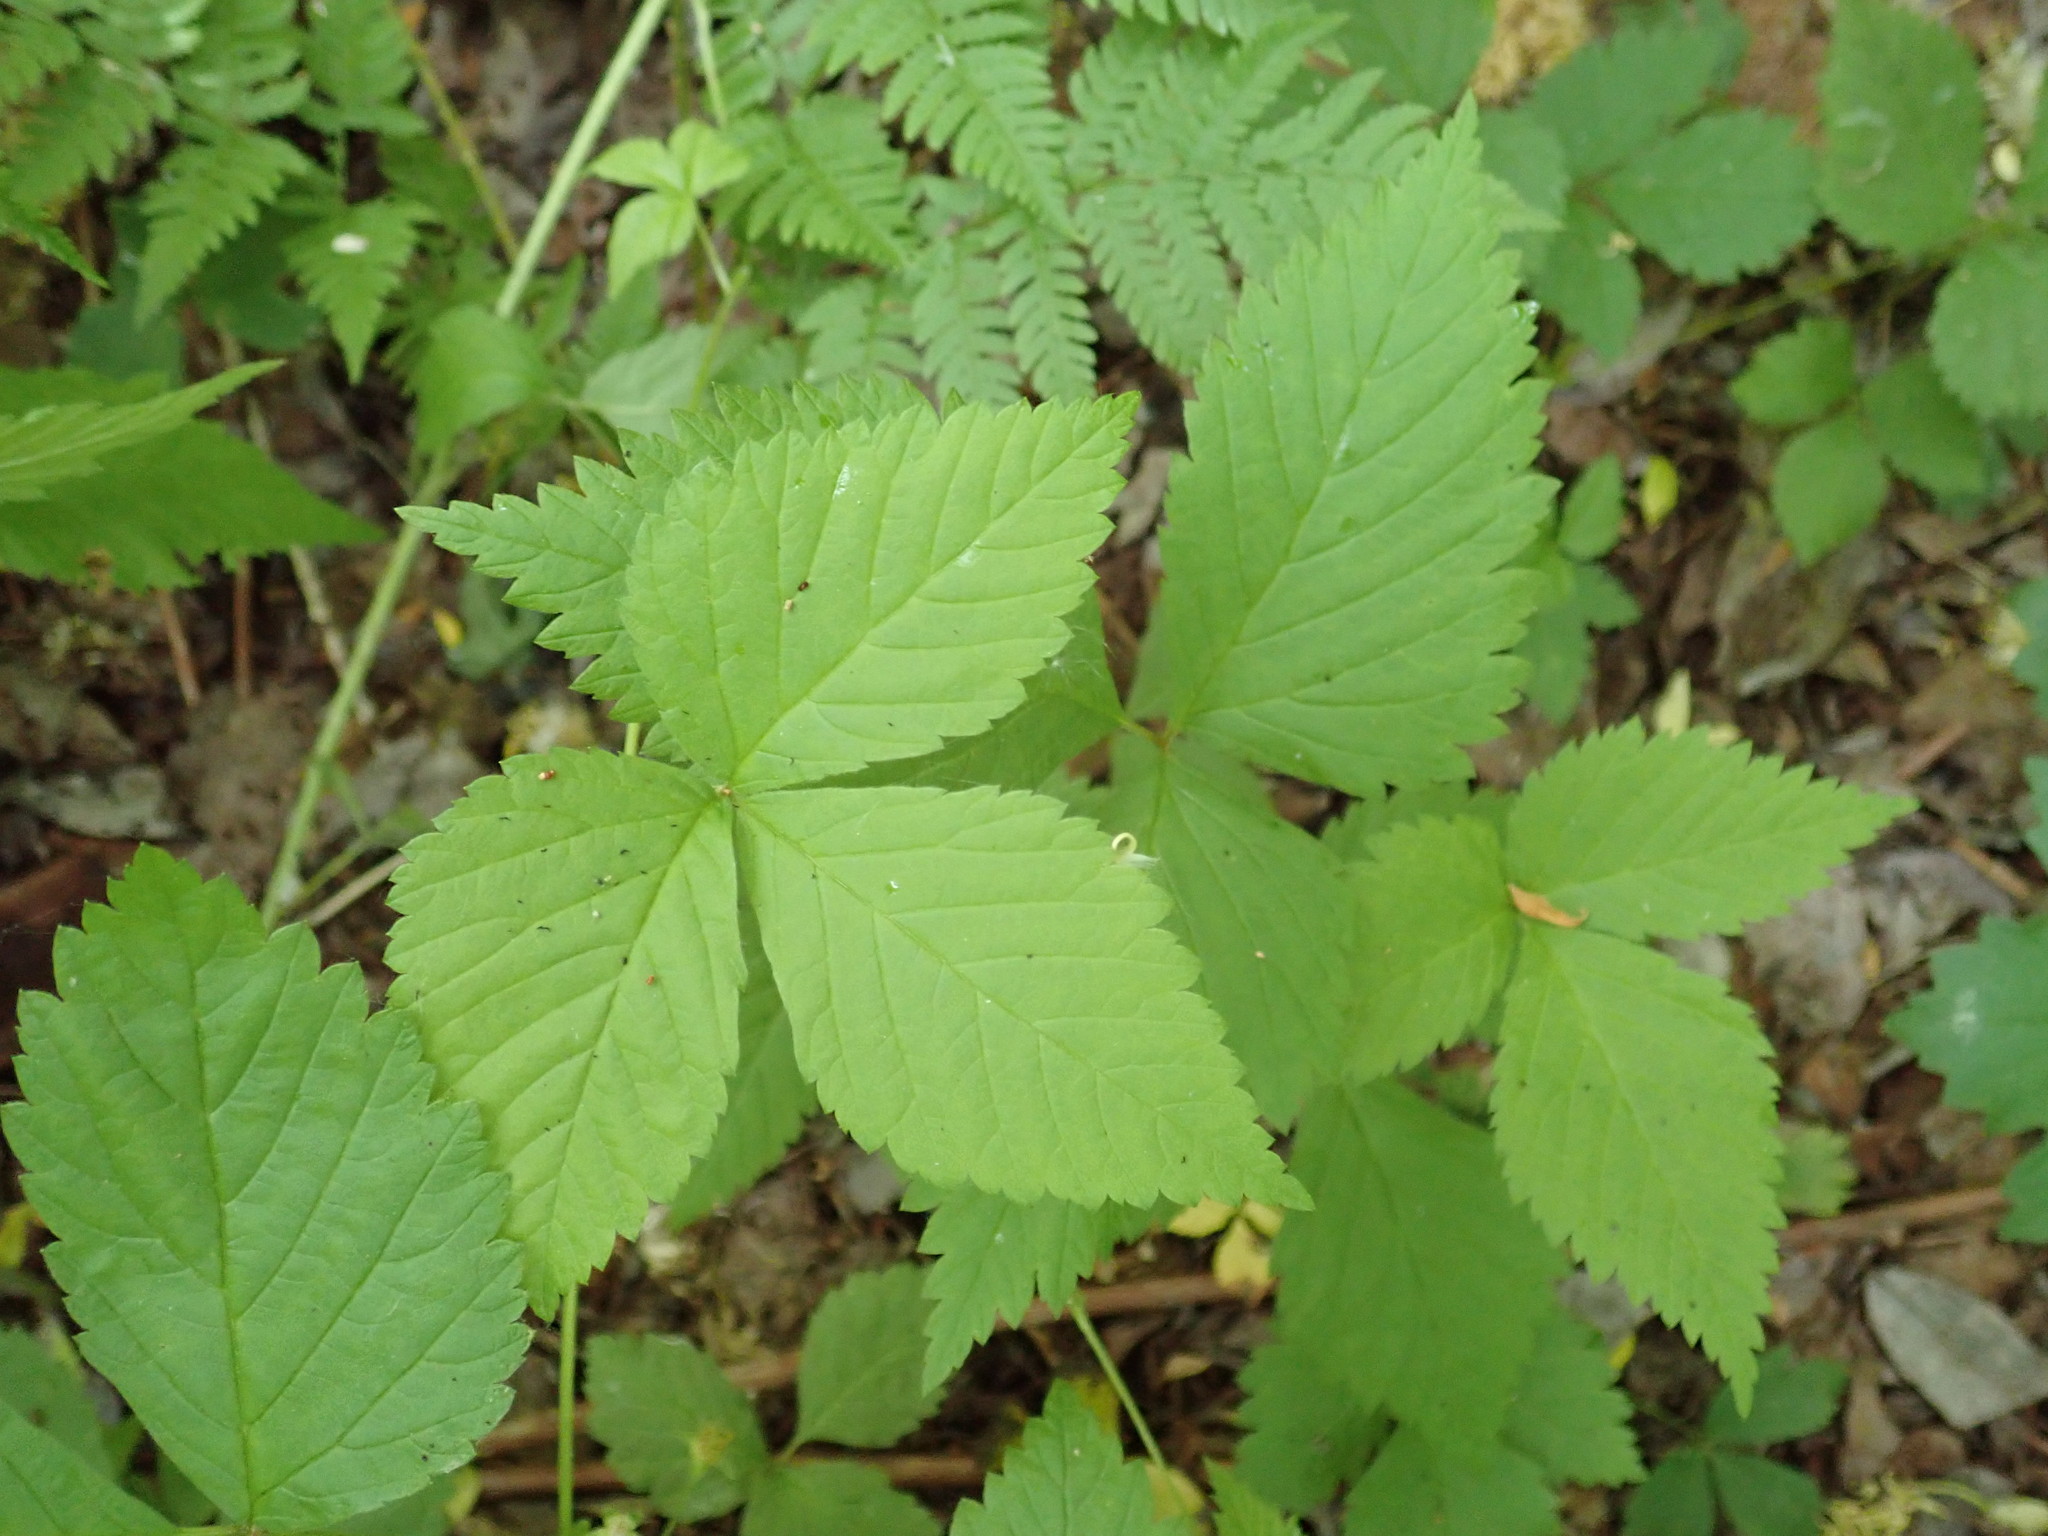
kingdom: Plantae
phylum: Tracheophyta
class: Magnoliopsida
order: Rosales
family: Rosaceae
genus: Rubus
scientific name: Rubus pubescens
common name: Dwarf raspberry
